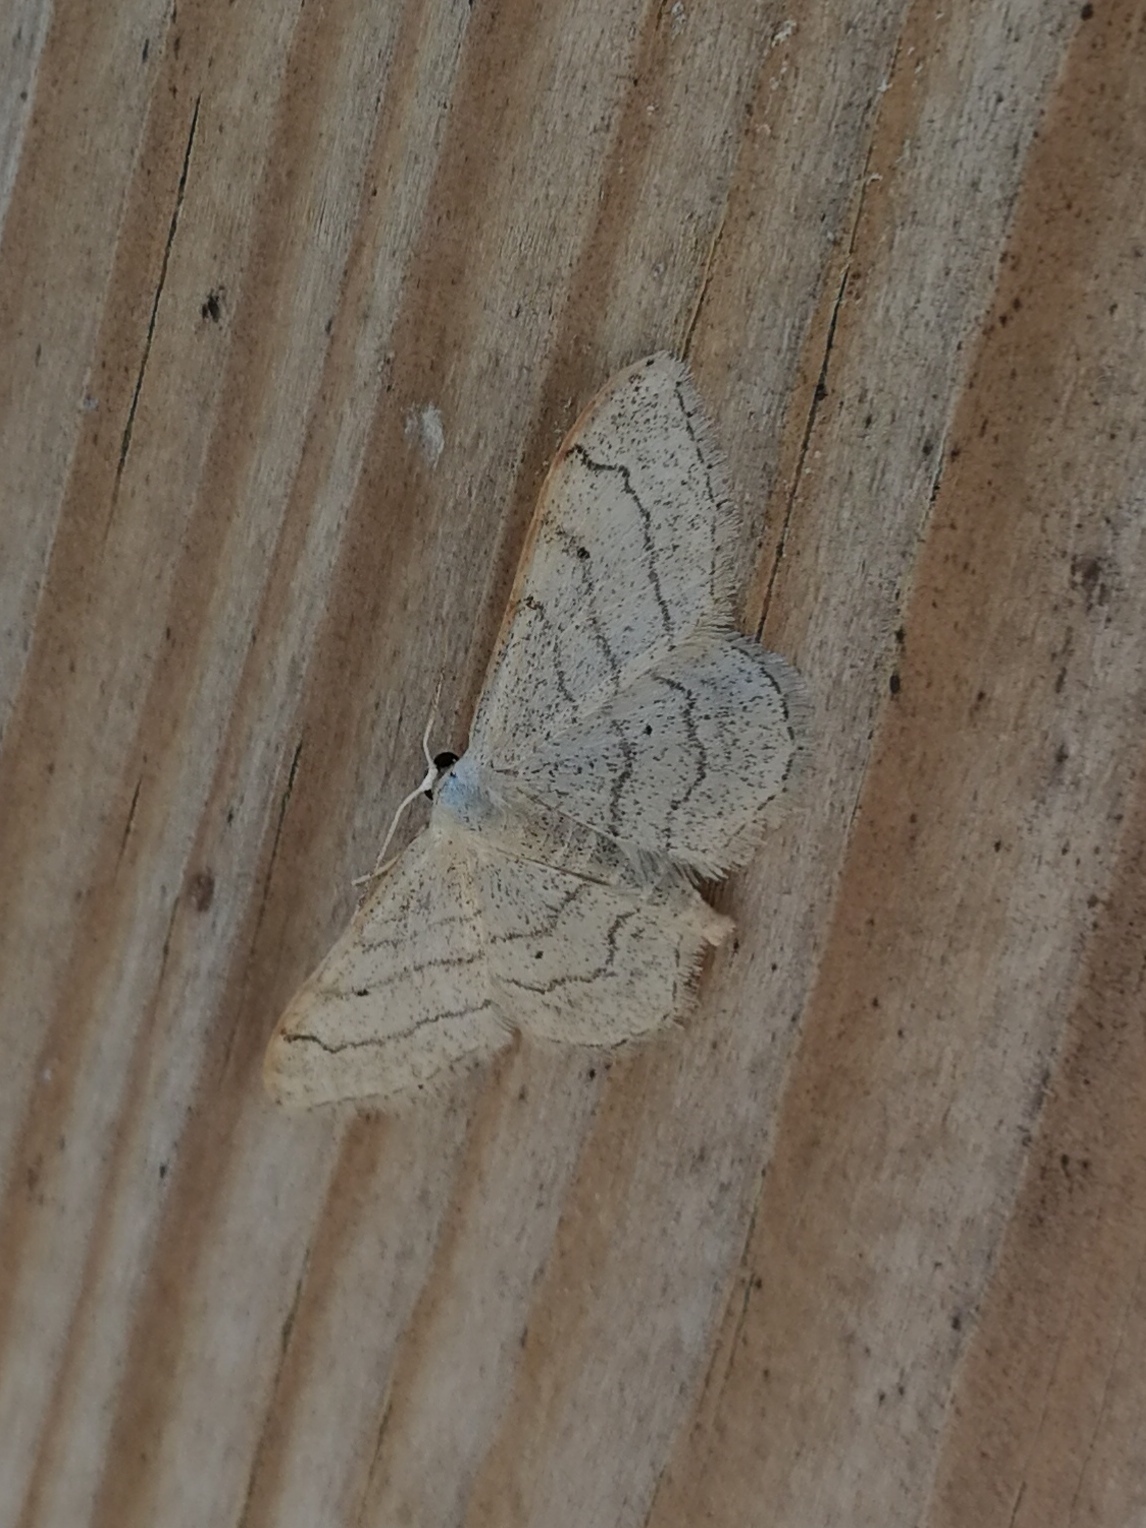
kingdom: Animalia
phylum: Arthropoda
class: Insecta
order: Lepidoptera
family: Geometridae
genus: Idaea
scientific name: Idaea aversata
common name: Riband wave
